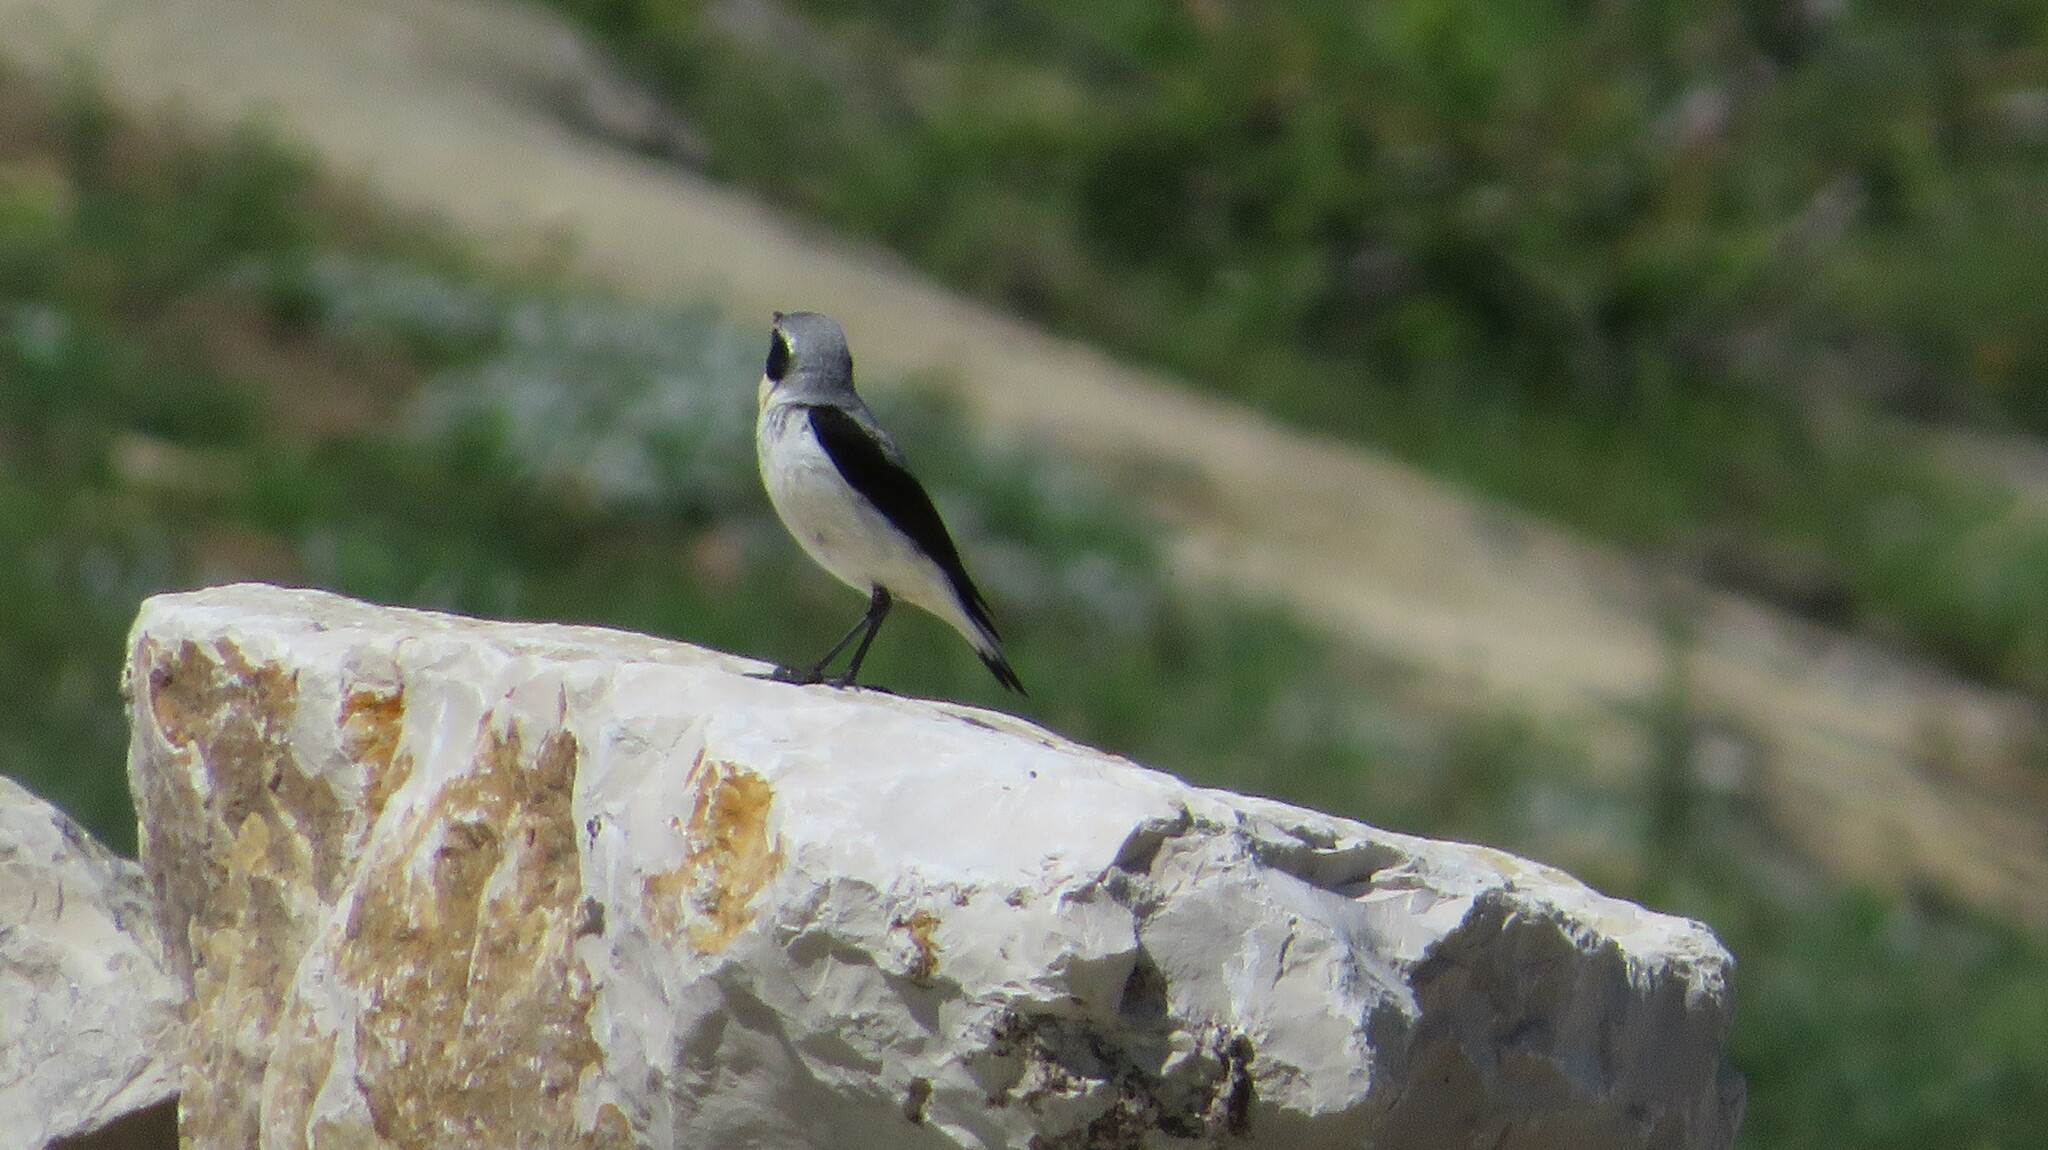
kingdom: Animalia
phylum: Chordata
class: Aves
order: Passeriformes
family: Muscicapidae
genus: Oenanthe
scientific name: Oenanthe oenanthe
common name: Northern wheatear
